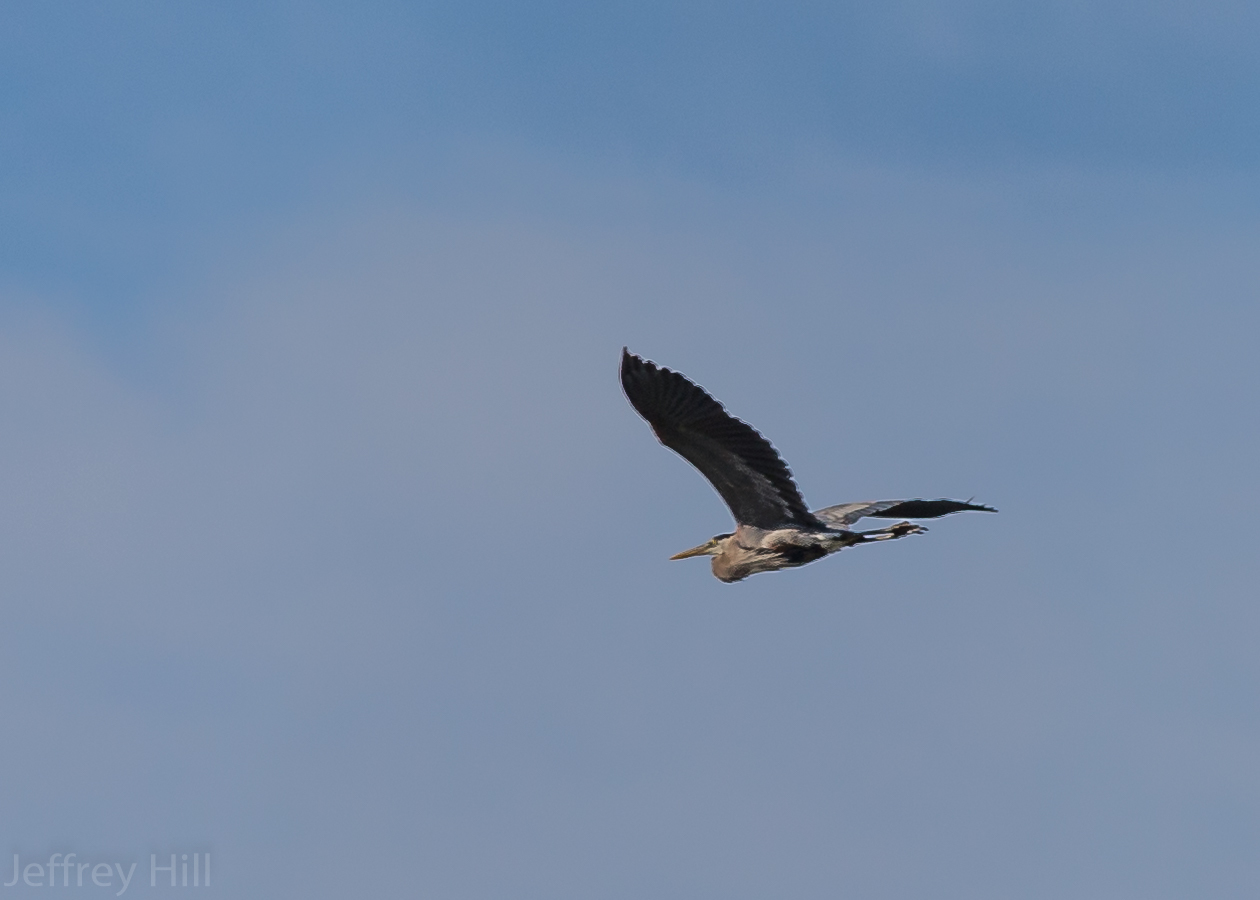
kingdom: Animalia
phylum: Chordata
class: Aves
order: Pelecaniformes
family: Ardeidae
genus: Ardea
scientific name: Ardea herodias
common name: Great blue heron
